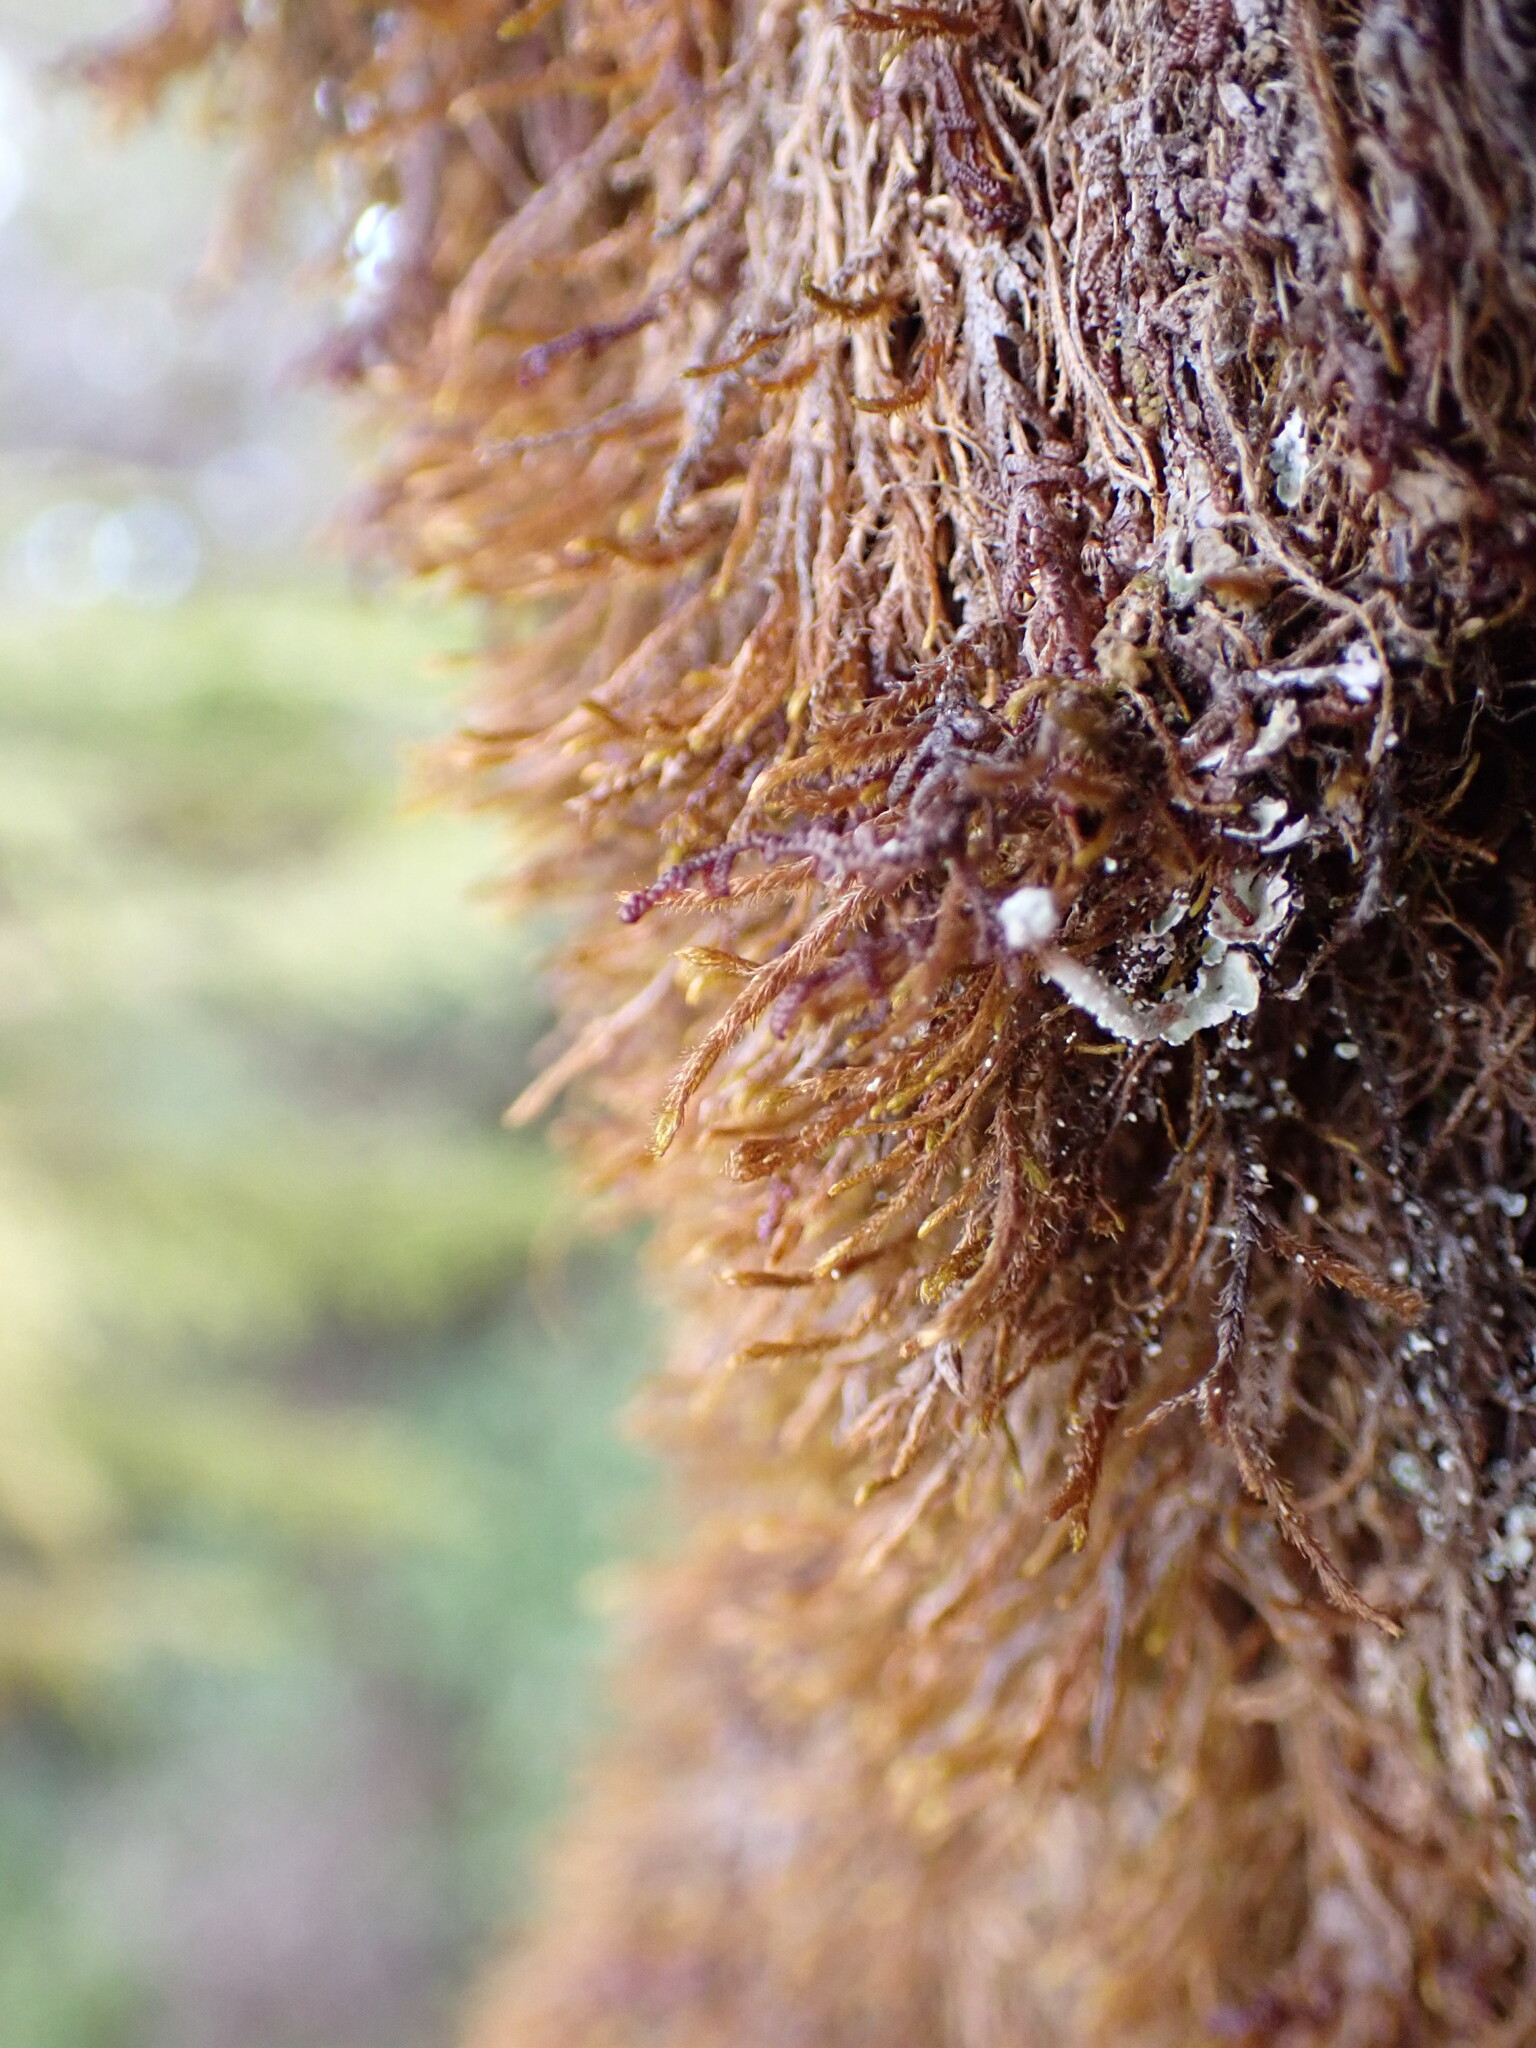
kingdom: Plantae
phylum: Marchantiophyta
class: Jungermanniopsida
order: Jungermanniales
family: Herbertaceae
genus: Herbertus
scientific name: Herbertus aduncus
